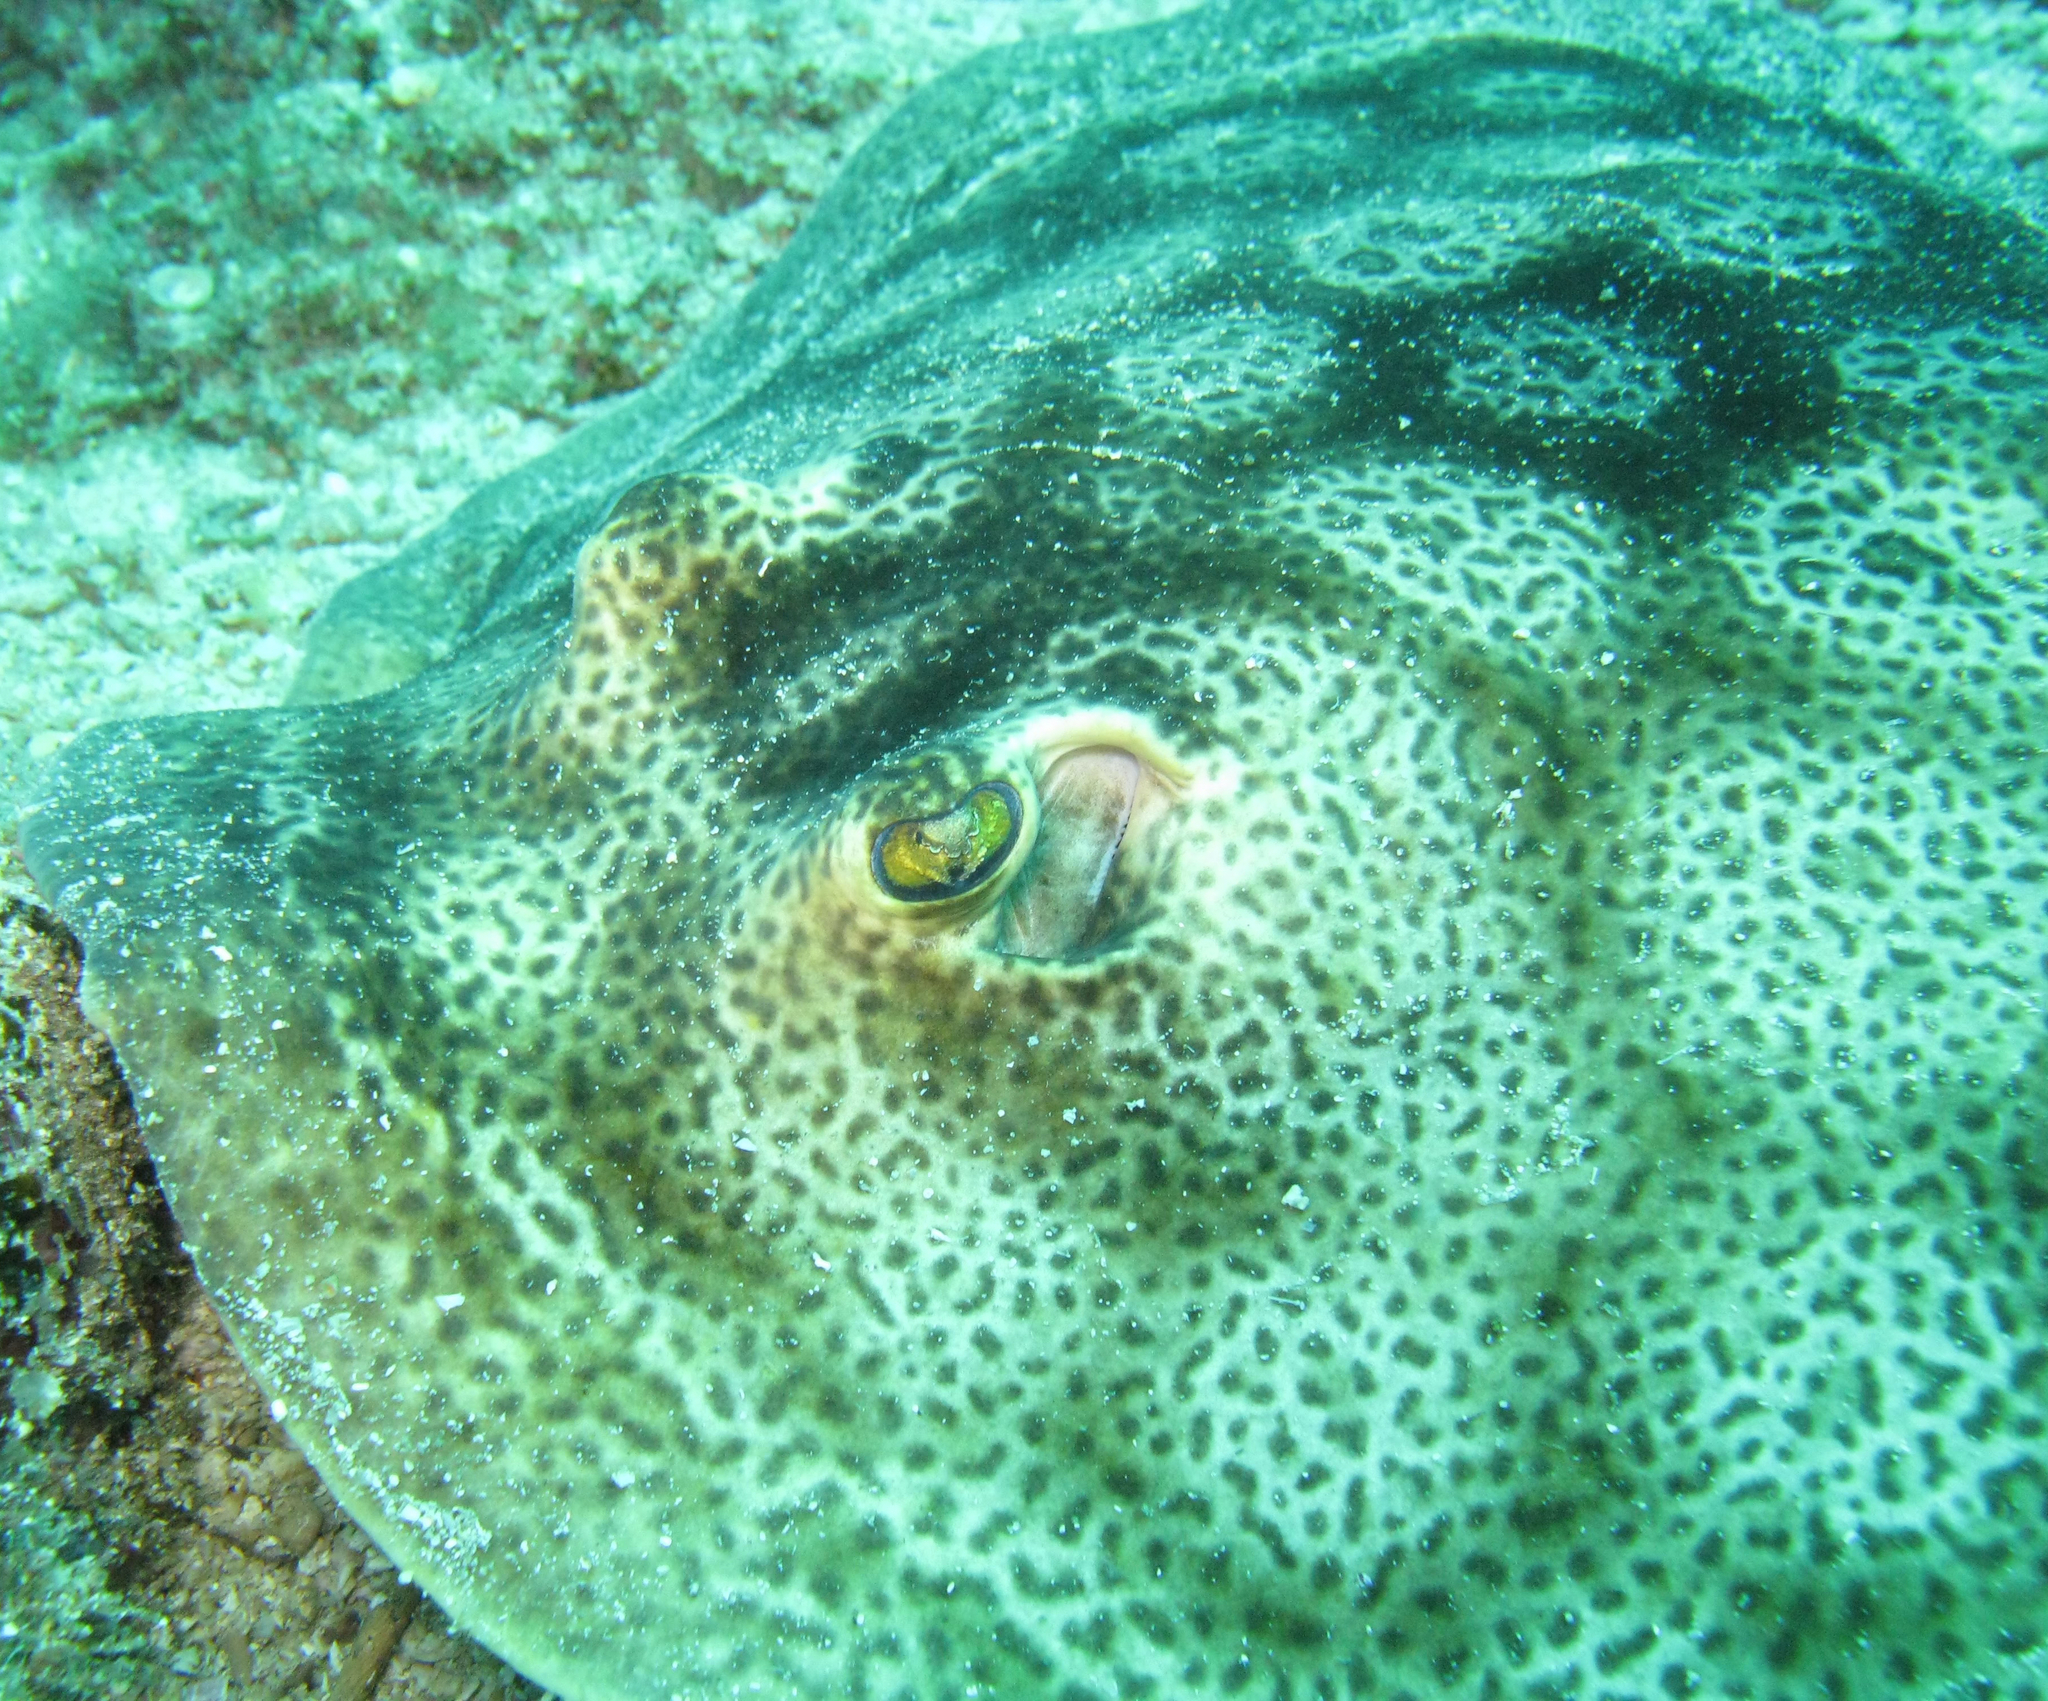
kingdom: Animalia
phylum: Chordata
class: Elasmobranchii
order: Myliobatiformes
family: Urotrygonidae
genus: Urobatis
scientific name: Urobatis pardalis
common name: Leopard round ray
